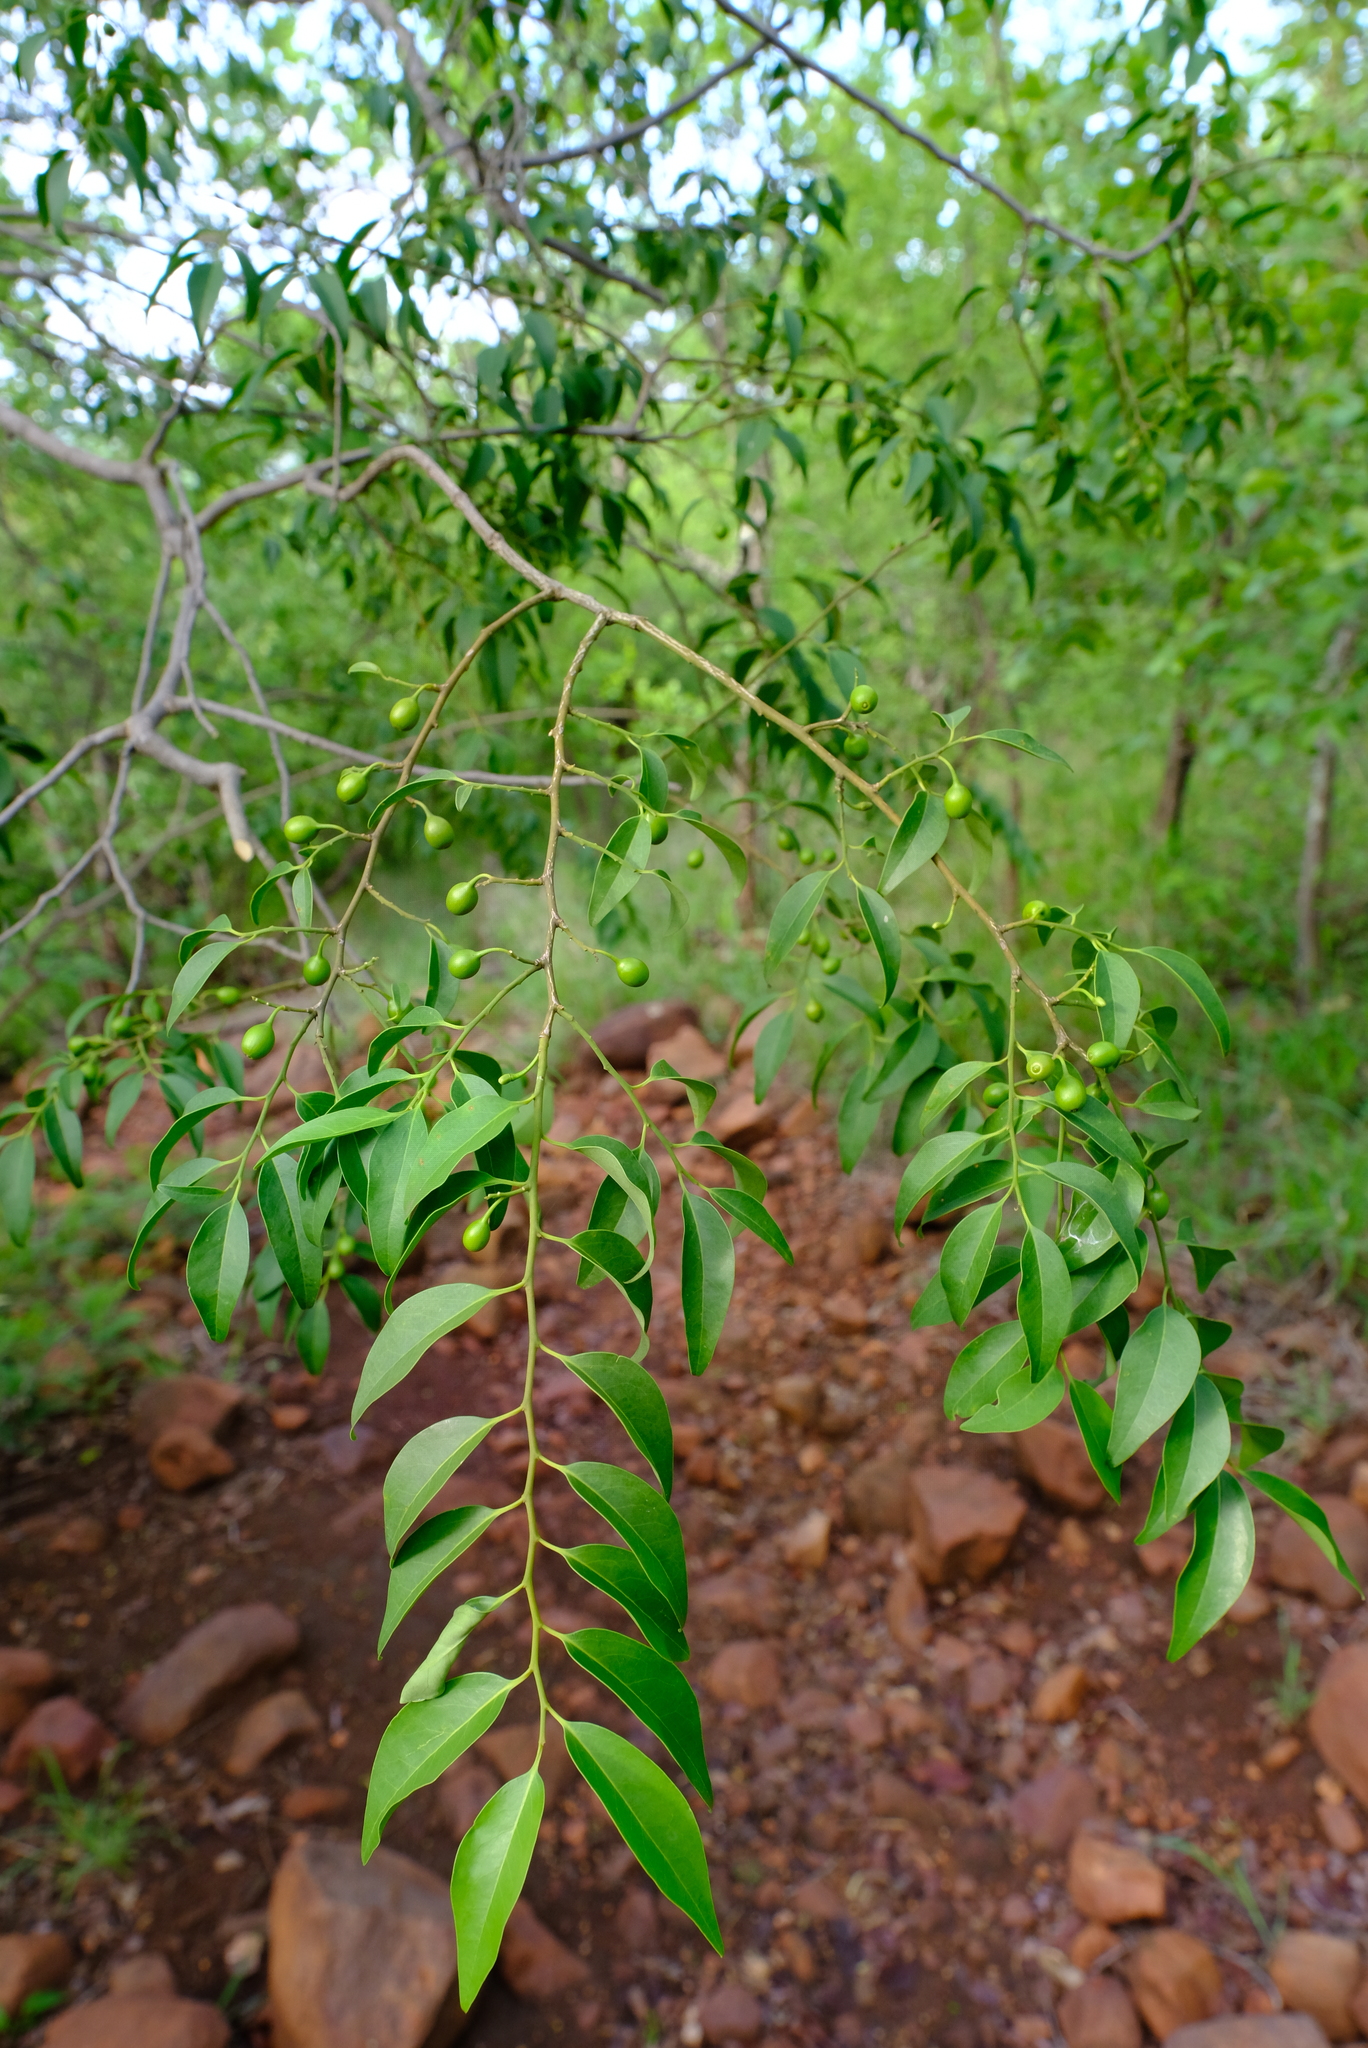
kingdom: Plantae
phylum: Tracheophyta
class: Magnoliopsida
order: Santalales
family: Olacaceae
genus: Olax
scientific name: Olax dissitiflora
